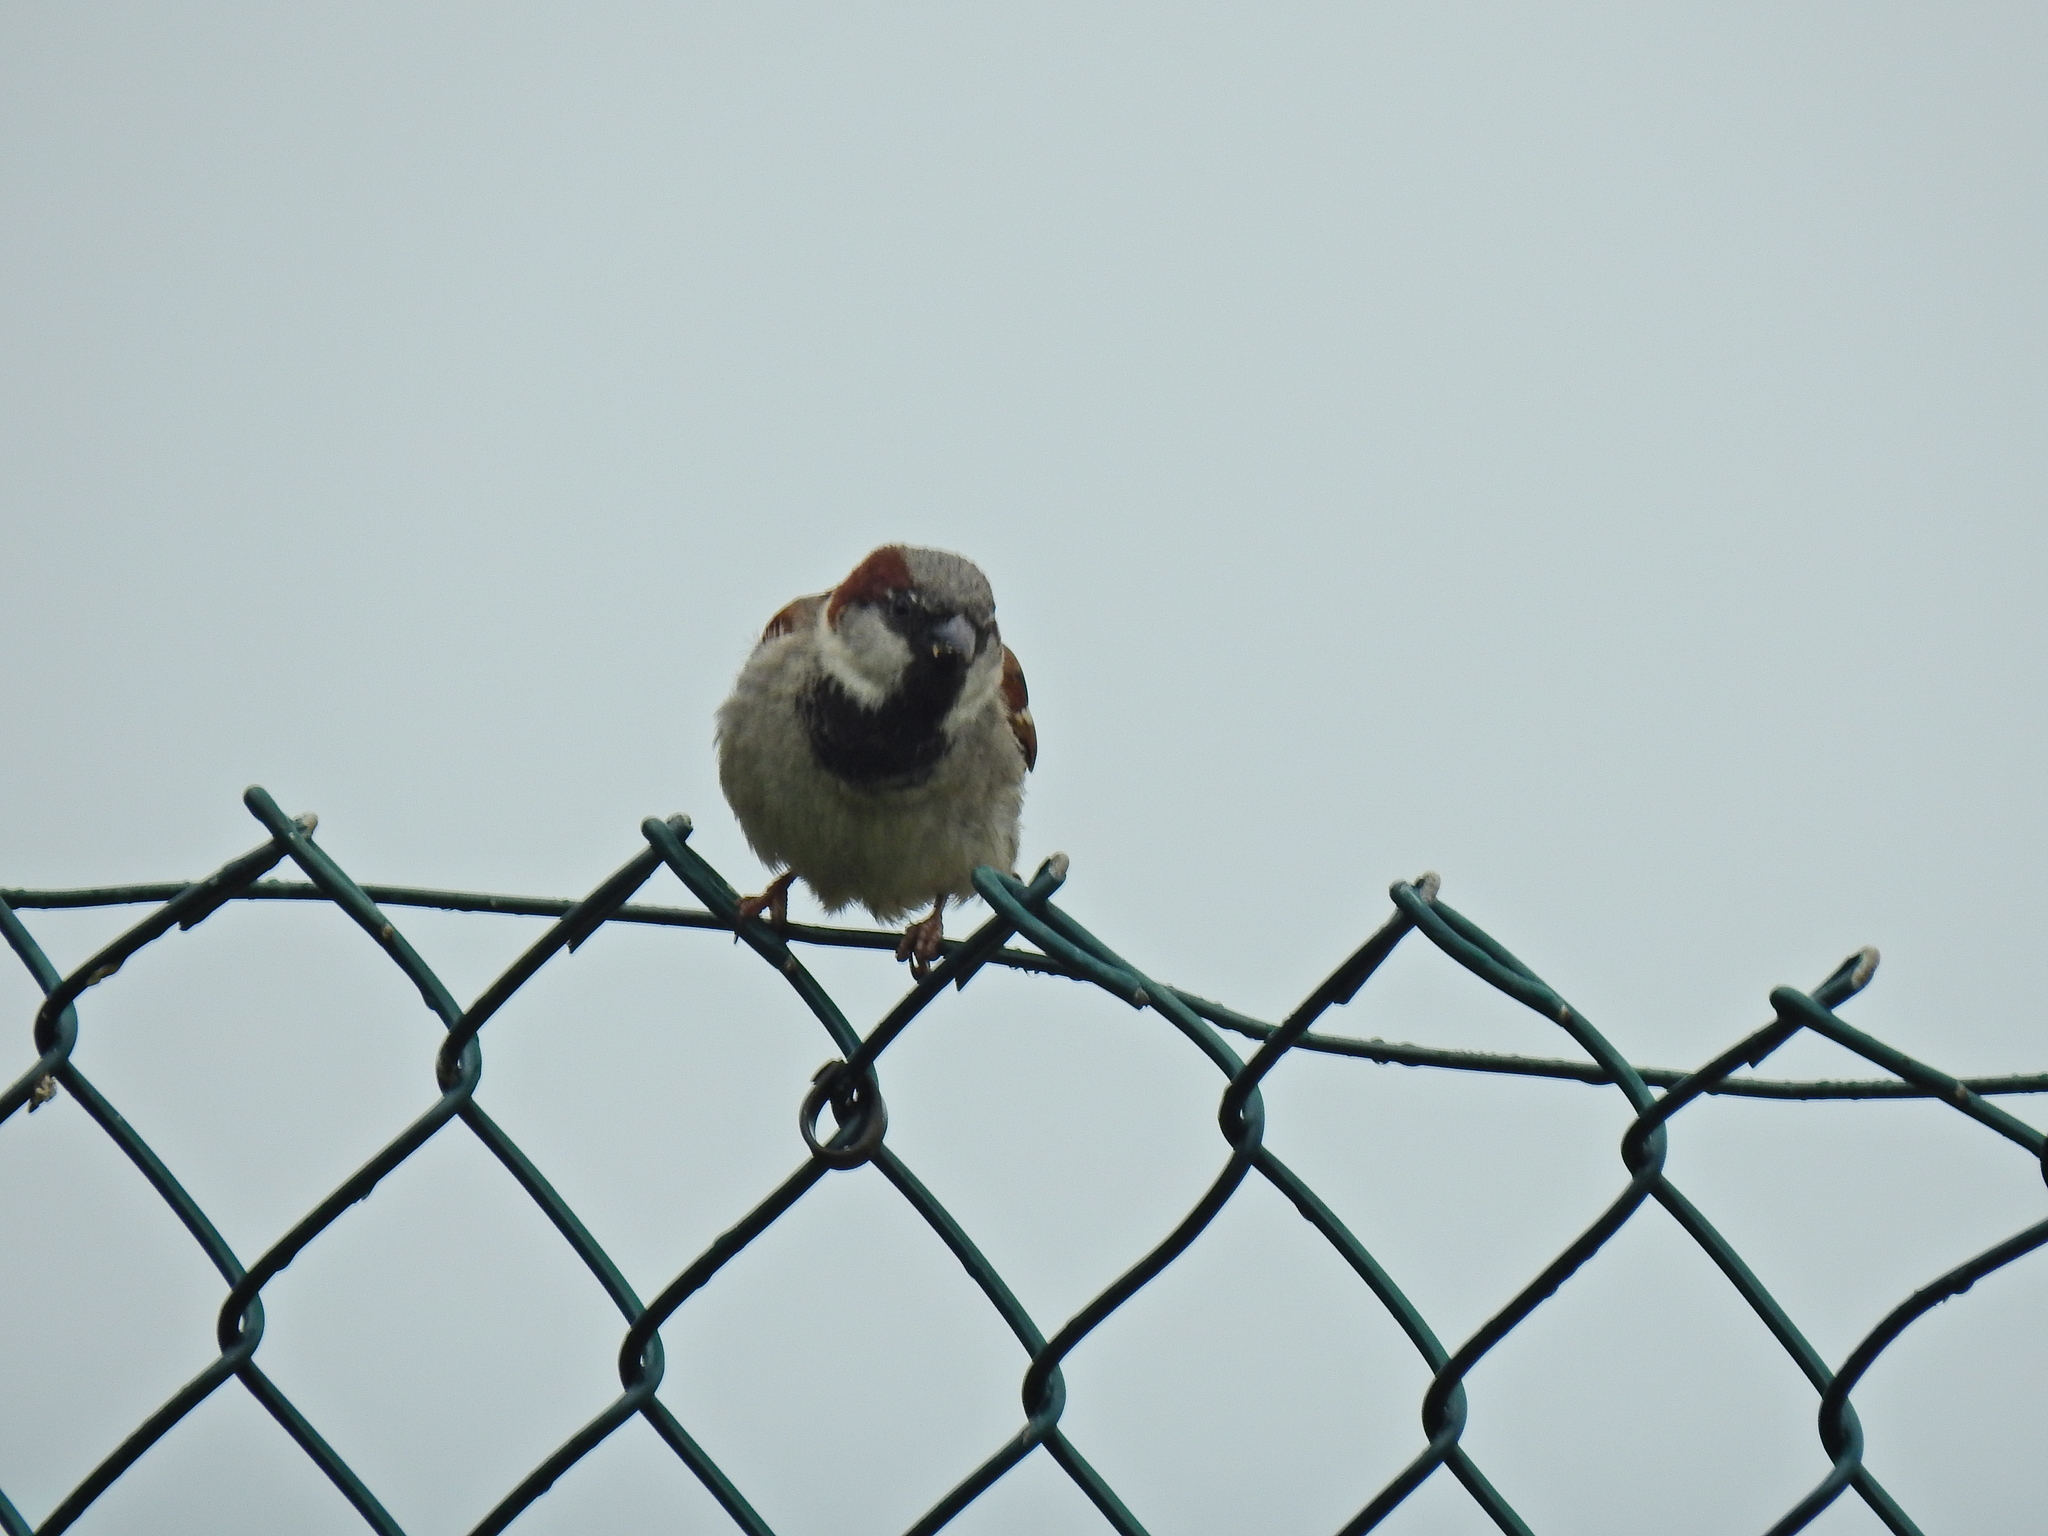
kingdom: Animalia
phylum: Chordata
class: Aves
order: Passeriformes
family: Passeridae
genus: Passer
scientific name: Passer domesticus
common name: House sparrow
